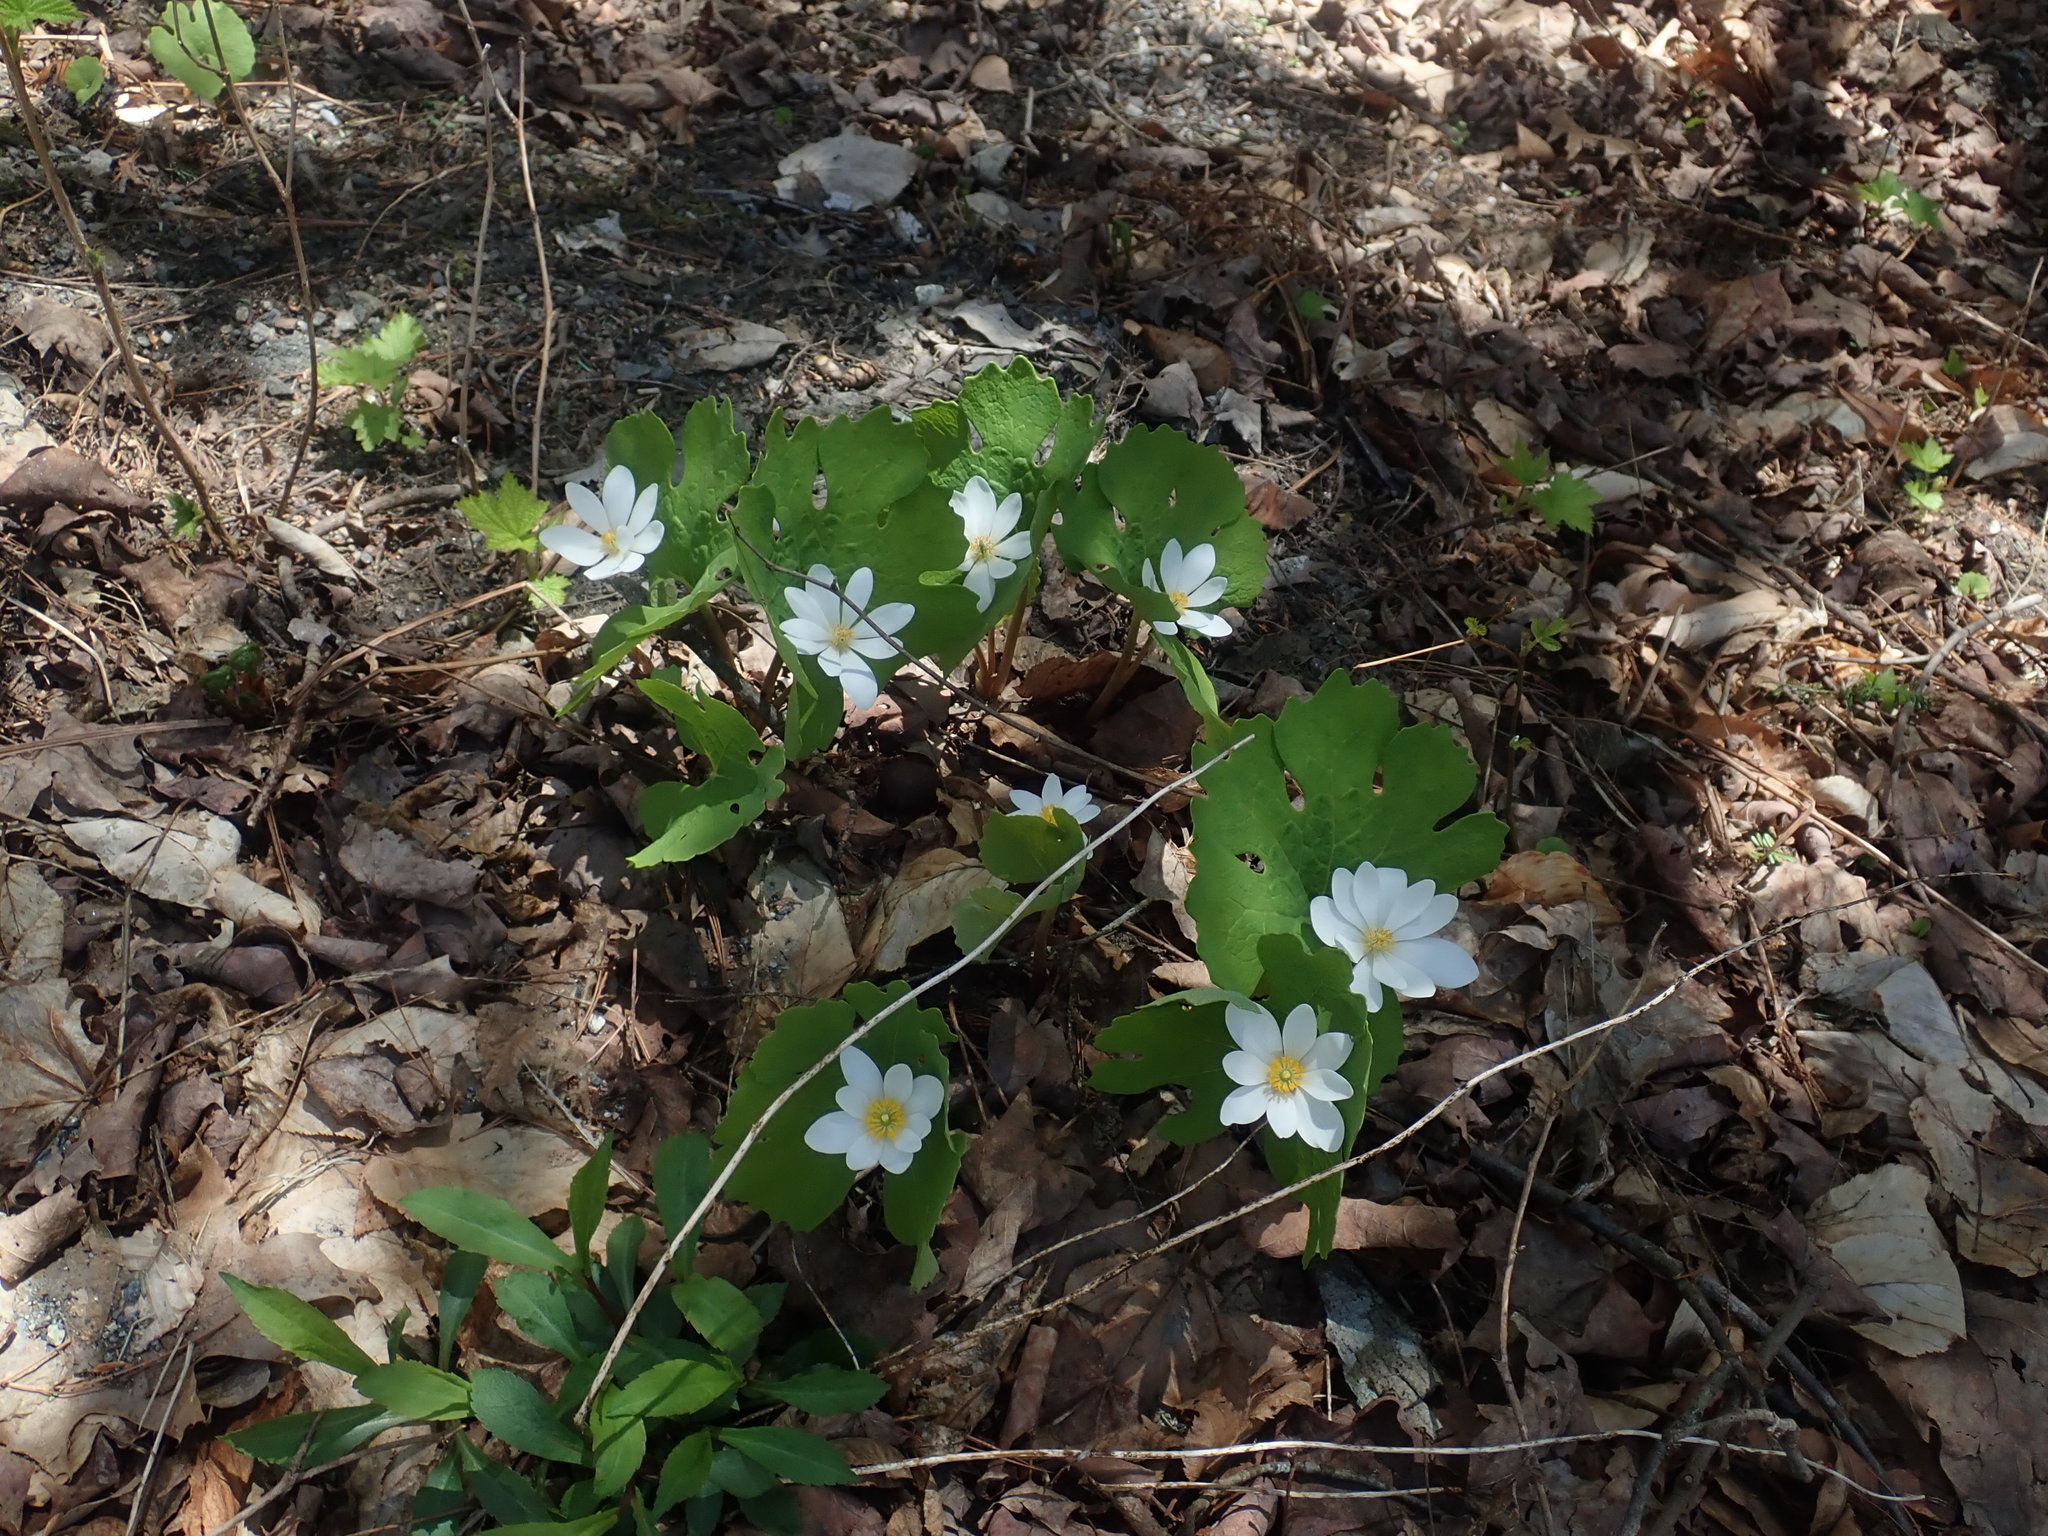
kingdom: Plantae
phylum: Tracheophyta
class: Magnoliopsida
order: Ranunculales
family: Papaveraceae
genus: Sanguinaria
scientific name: Sanguinaria canadensis
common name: Bloodroot
